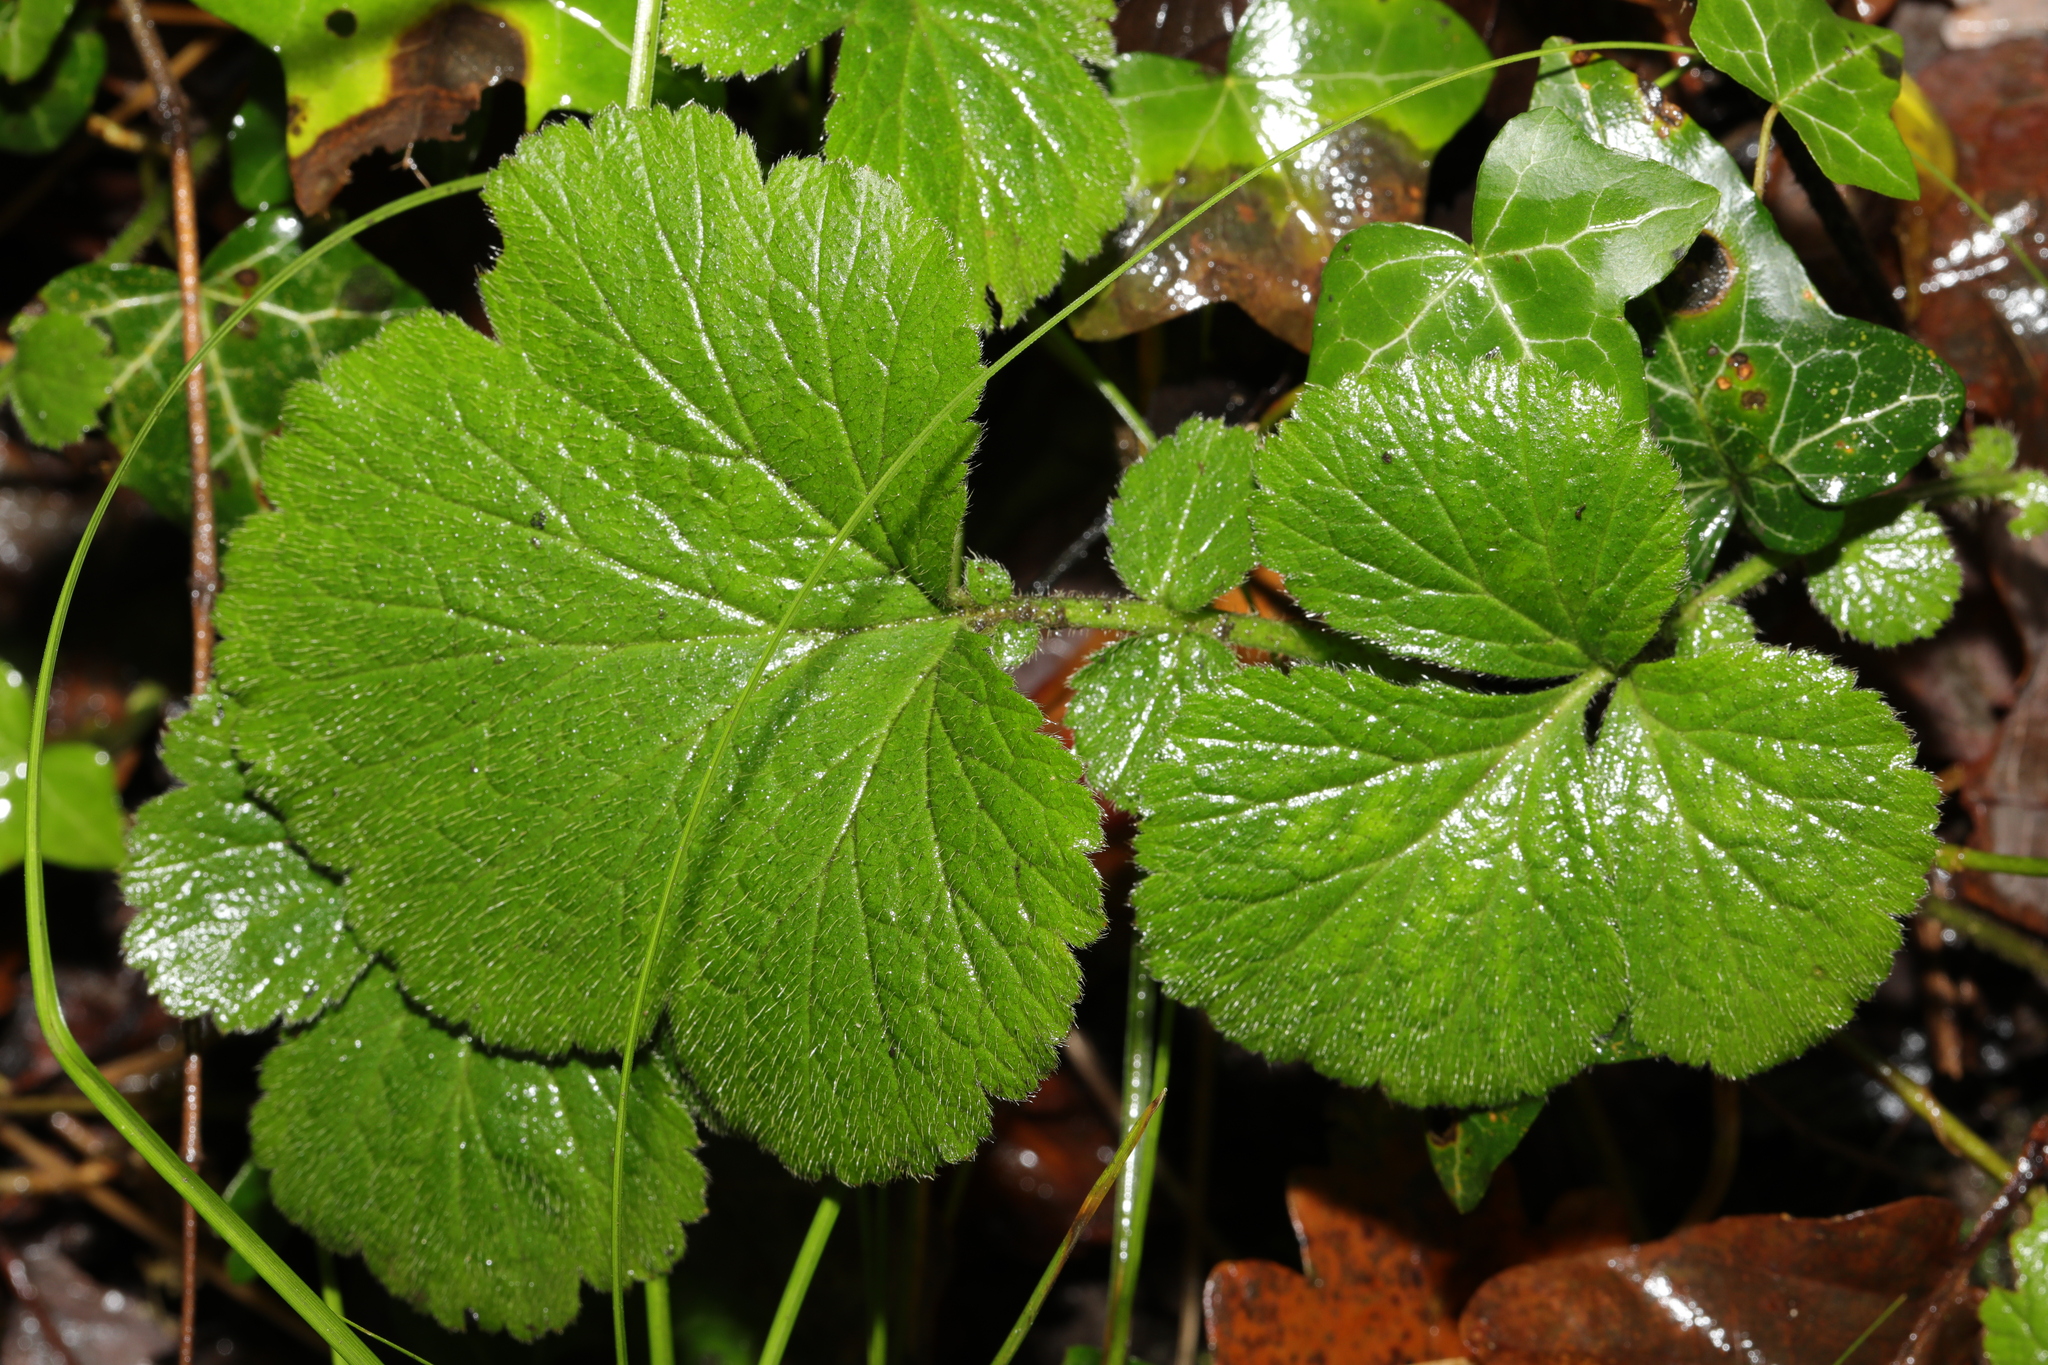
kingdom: Plantae
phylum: Tracheophyta
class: Magnoliopsida
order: Rosales
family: Rosaceae
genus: Geum
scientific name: Geum urbanum
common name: Wood avens
